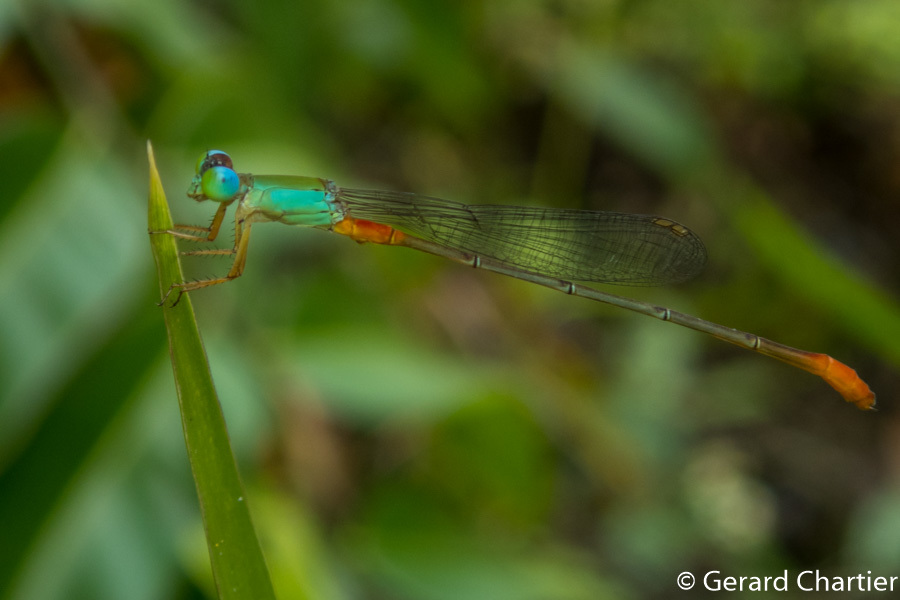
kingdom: Animalia
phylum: Arthropoda
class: Insecta
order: Odonata
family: Coenagrionidae
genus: Ceriagrion
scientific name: Ceriagrion cerinorubellum
